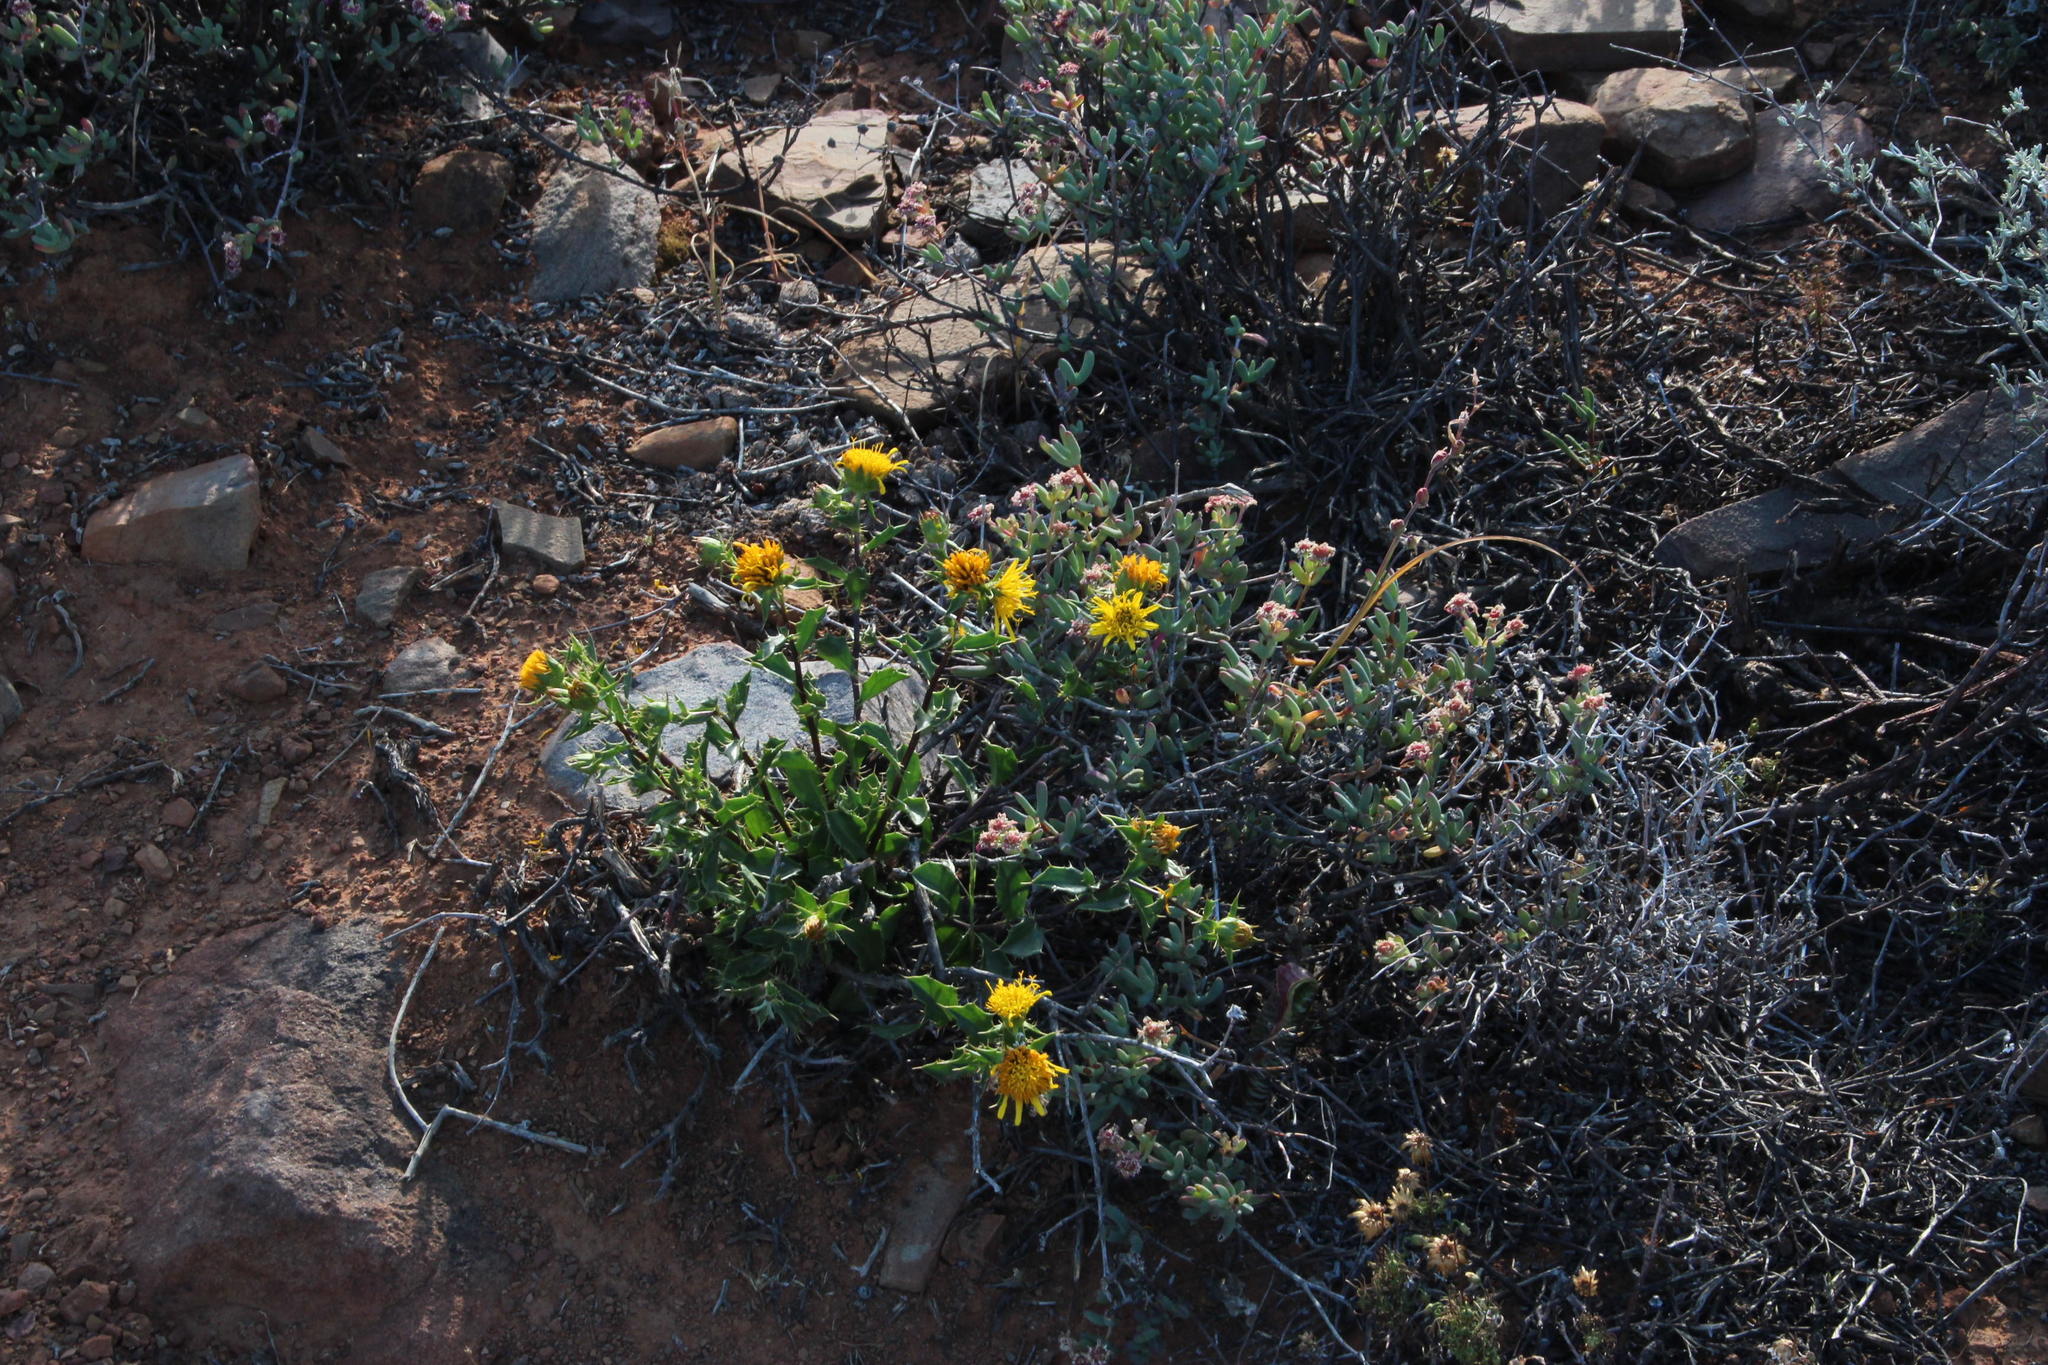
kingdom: Plantae
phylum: Tracheophyta
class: Magnoliopsida
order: Asterales
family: Asteraceae
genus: Berkheya
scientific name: Berkheya spinosa
